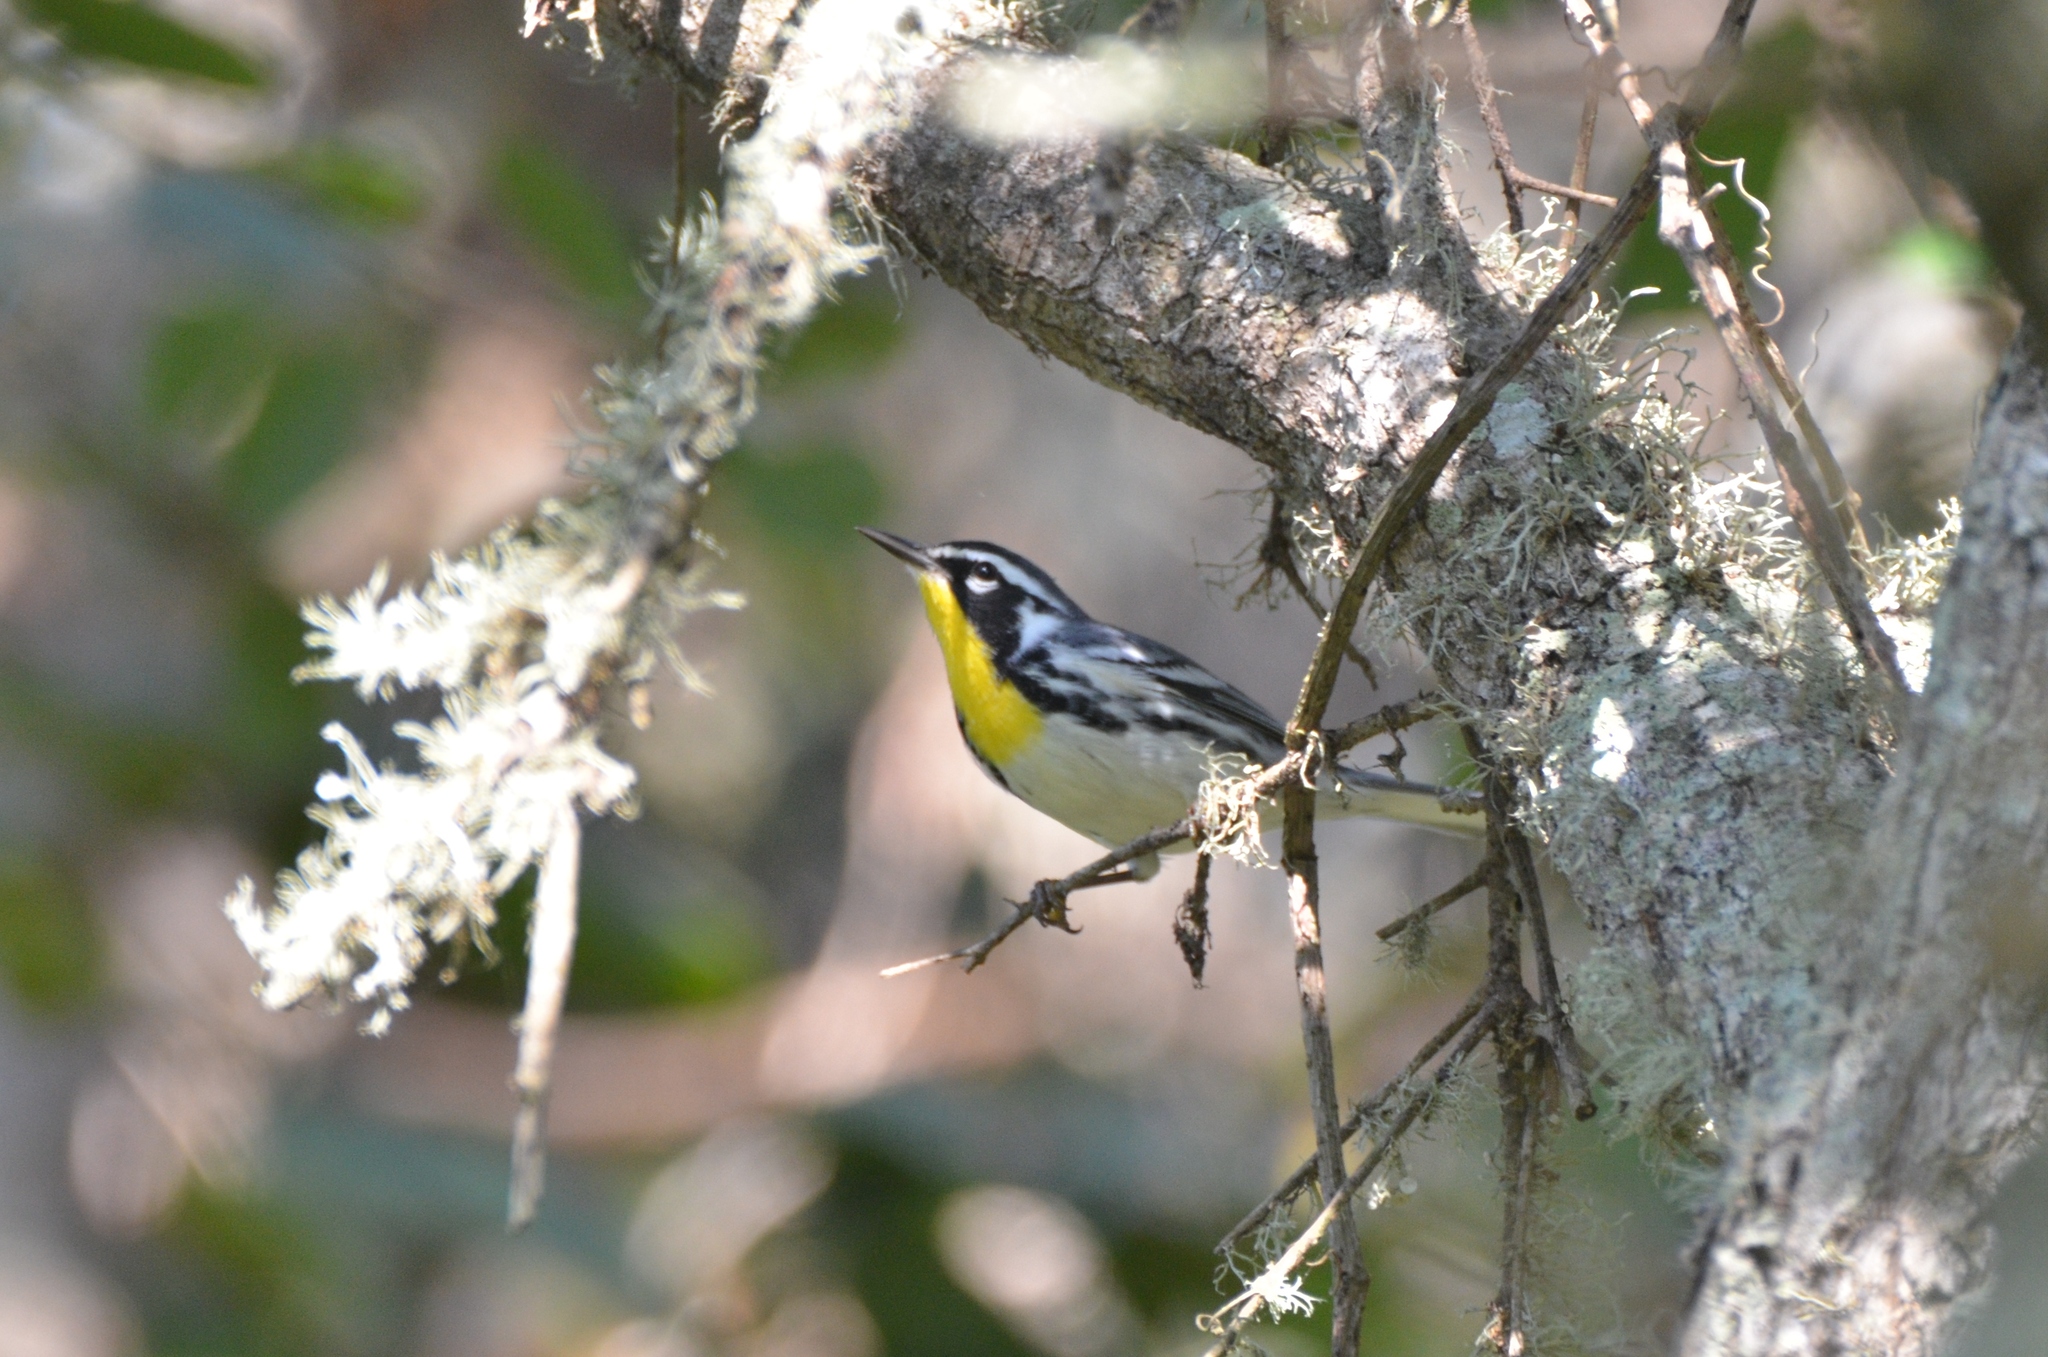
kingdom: Animalia
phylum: Chordata
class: Aves
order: Passeriformes
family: Parulidae
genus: Setophaga
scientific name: Setophaga dominica
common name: Yellow-throated warbler
